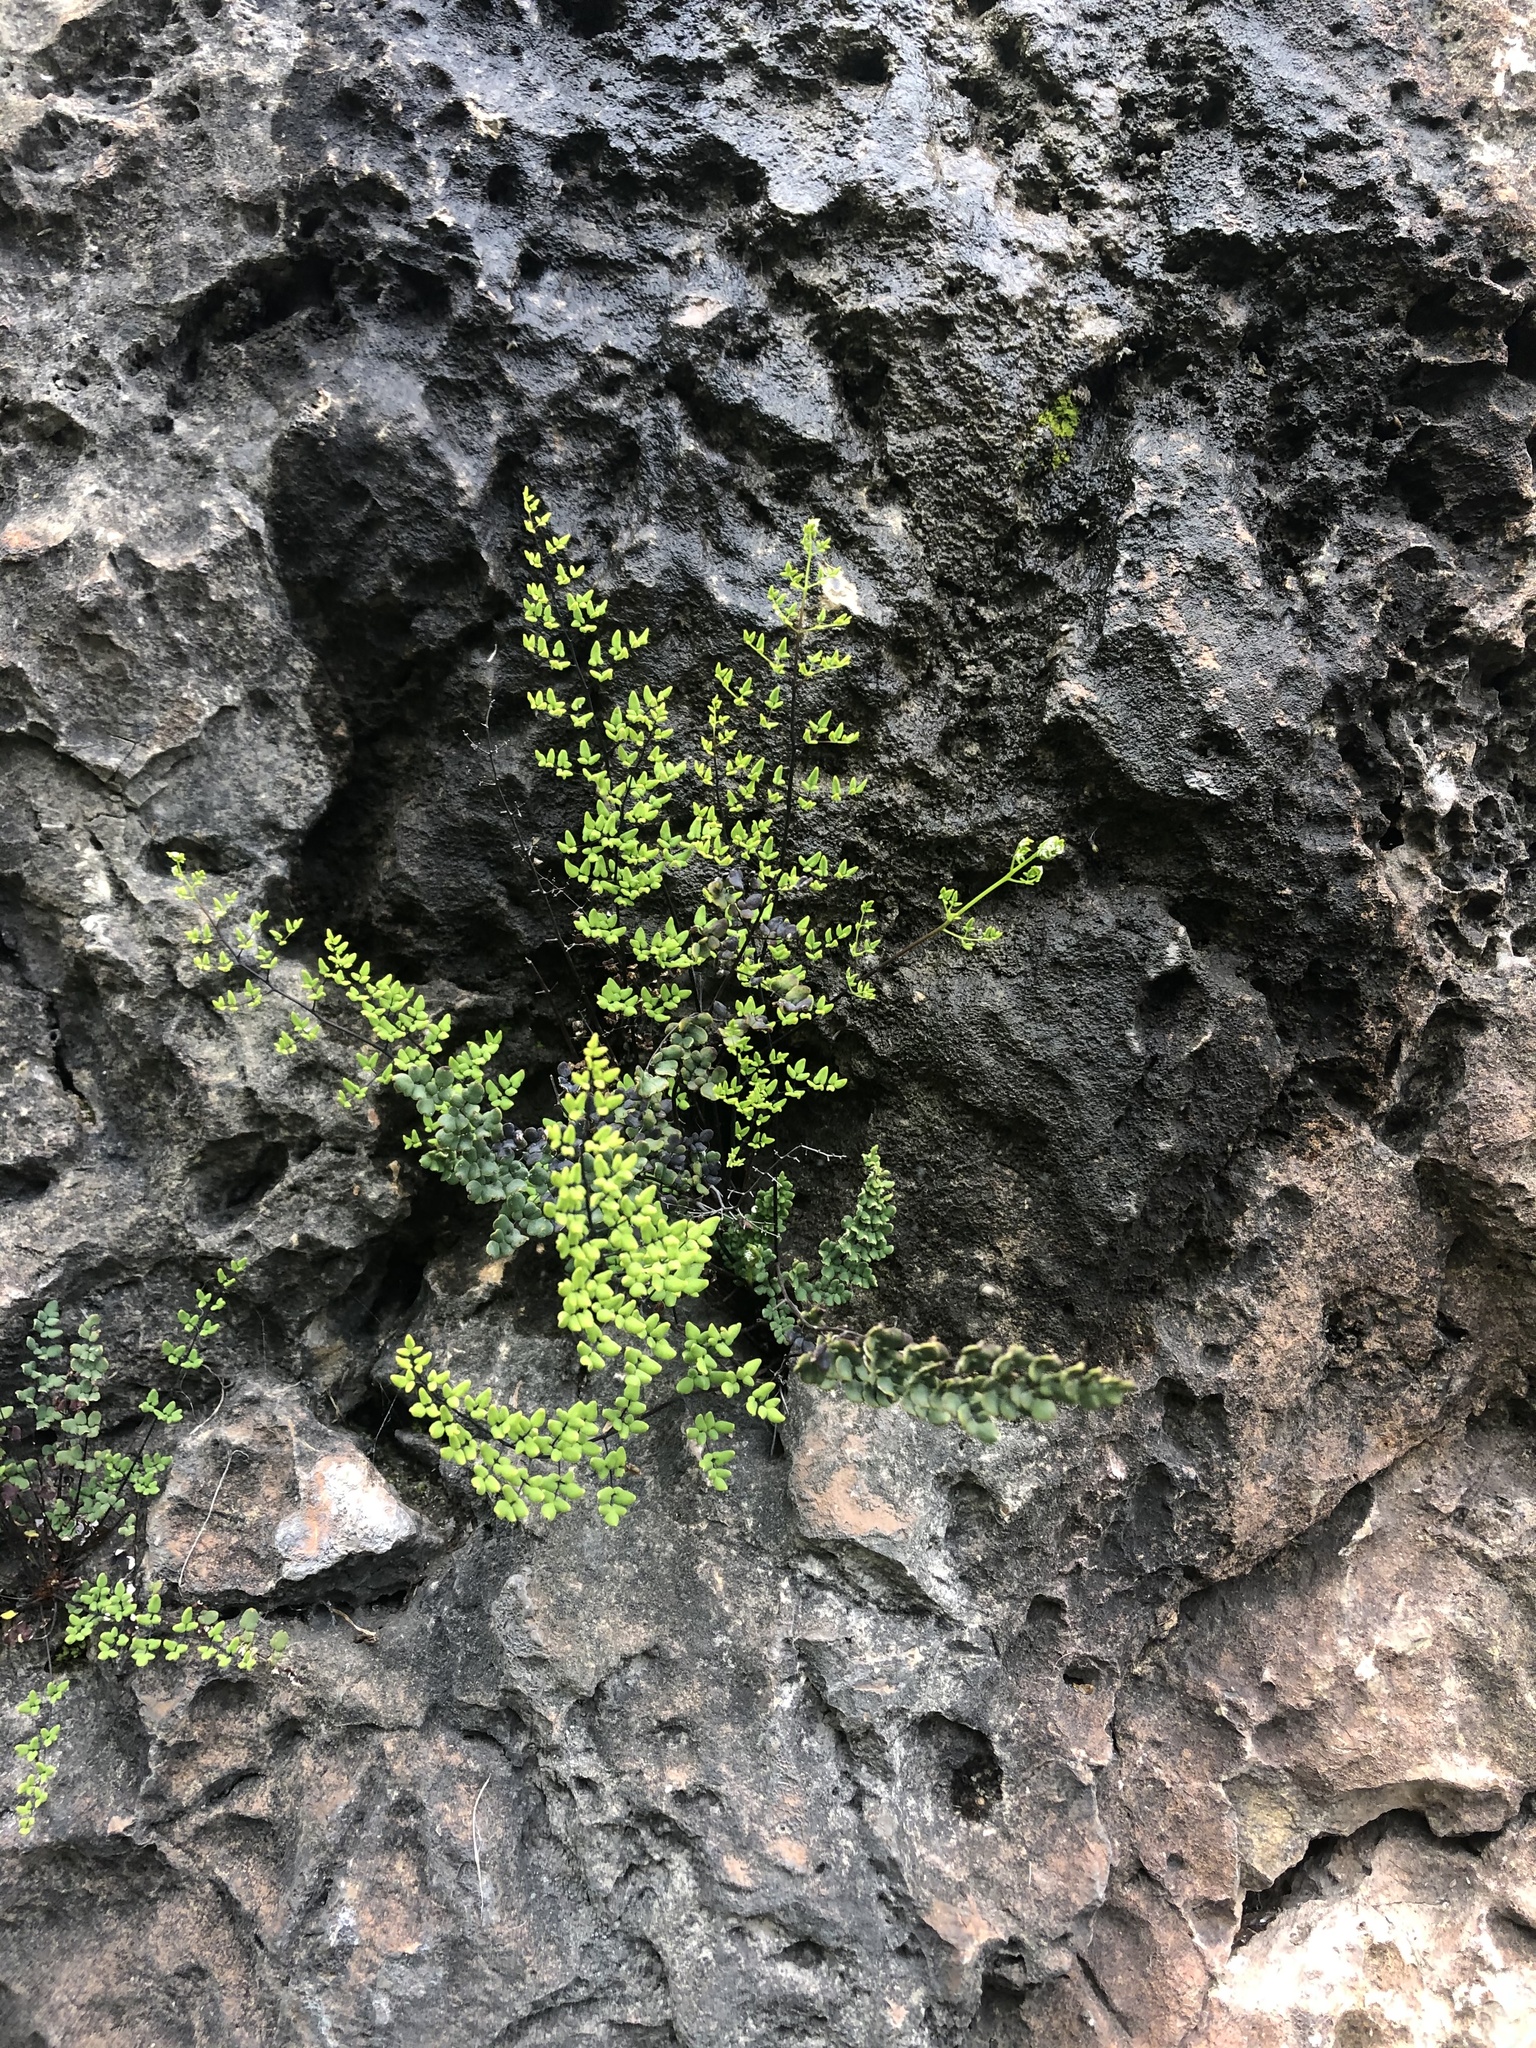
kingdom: Plantae
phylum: Tracheophyta
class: Polypodiopsida
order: Polypodiales
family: Pteridaceae
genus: Argyrochosma
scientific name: Argyrochosma nivea
